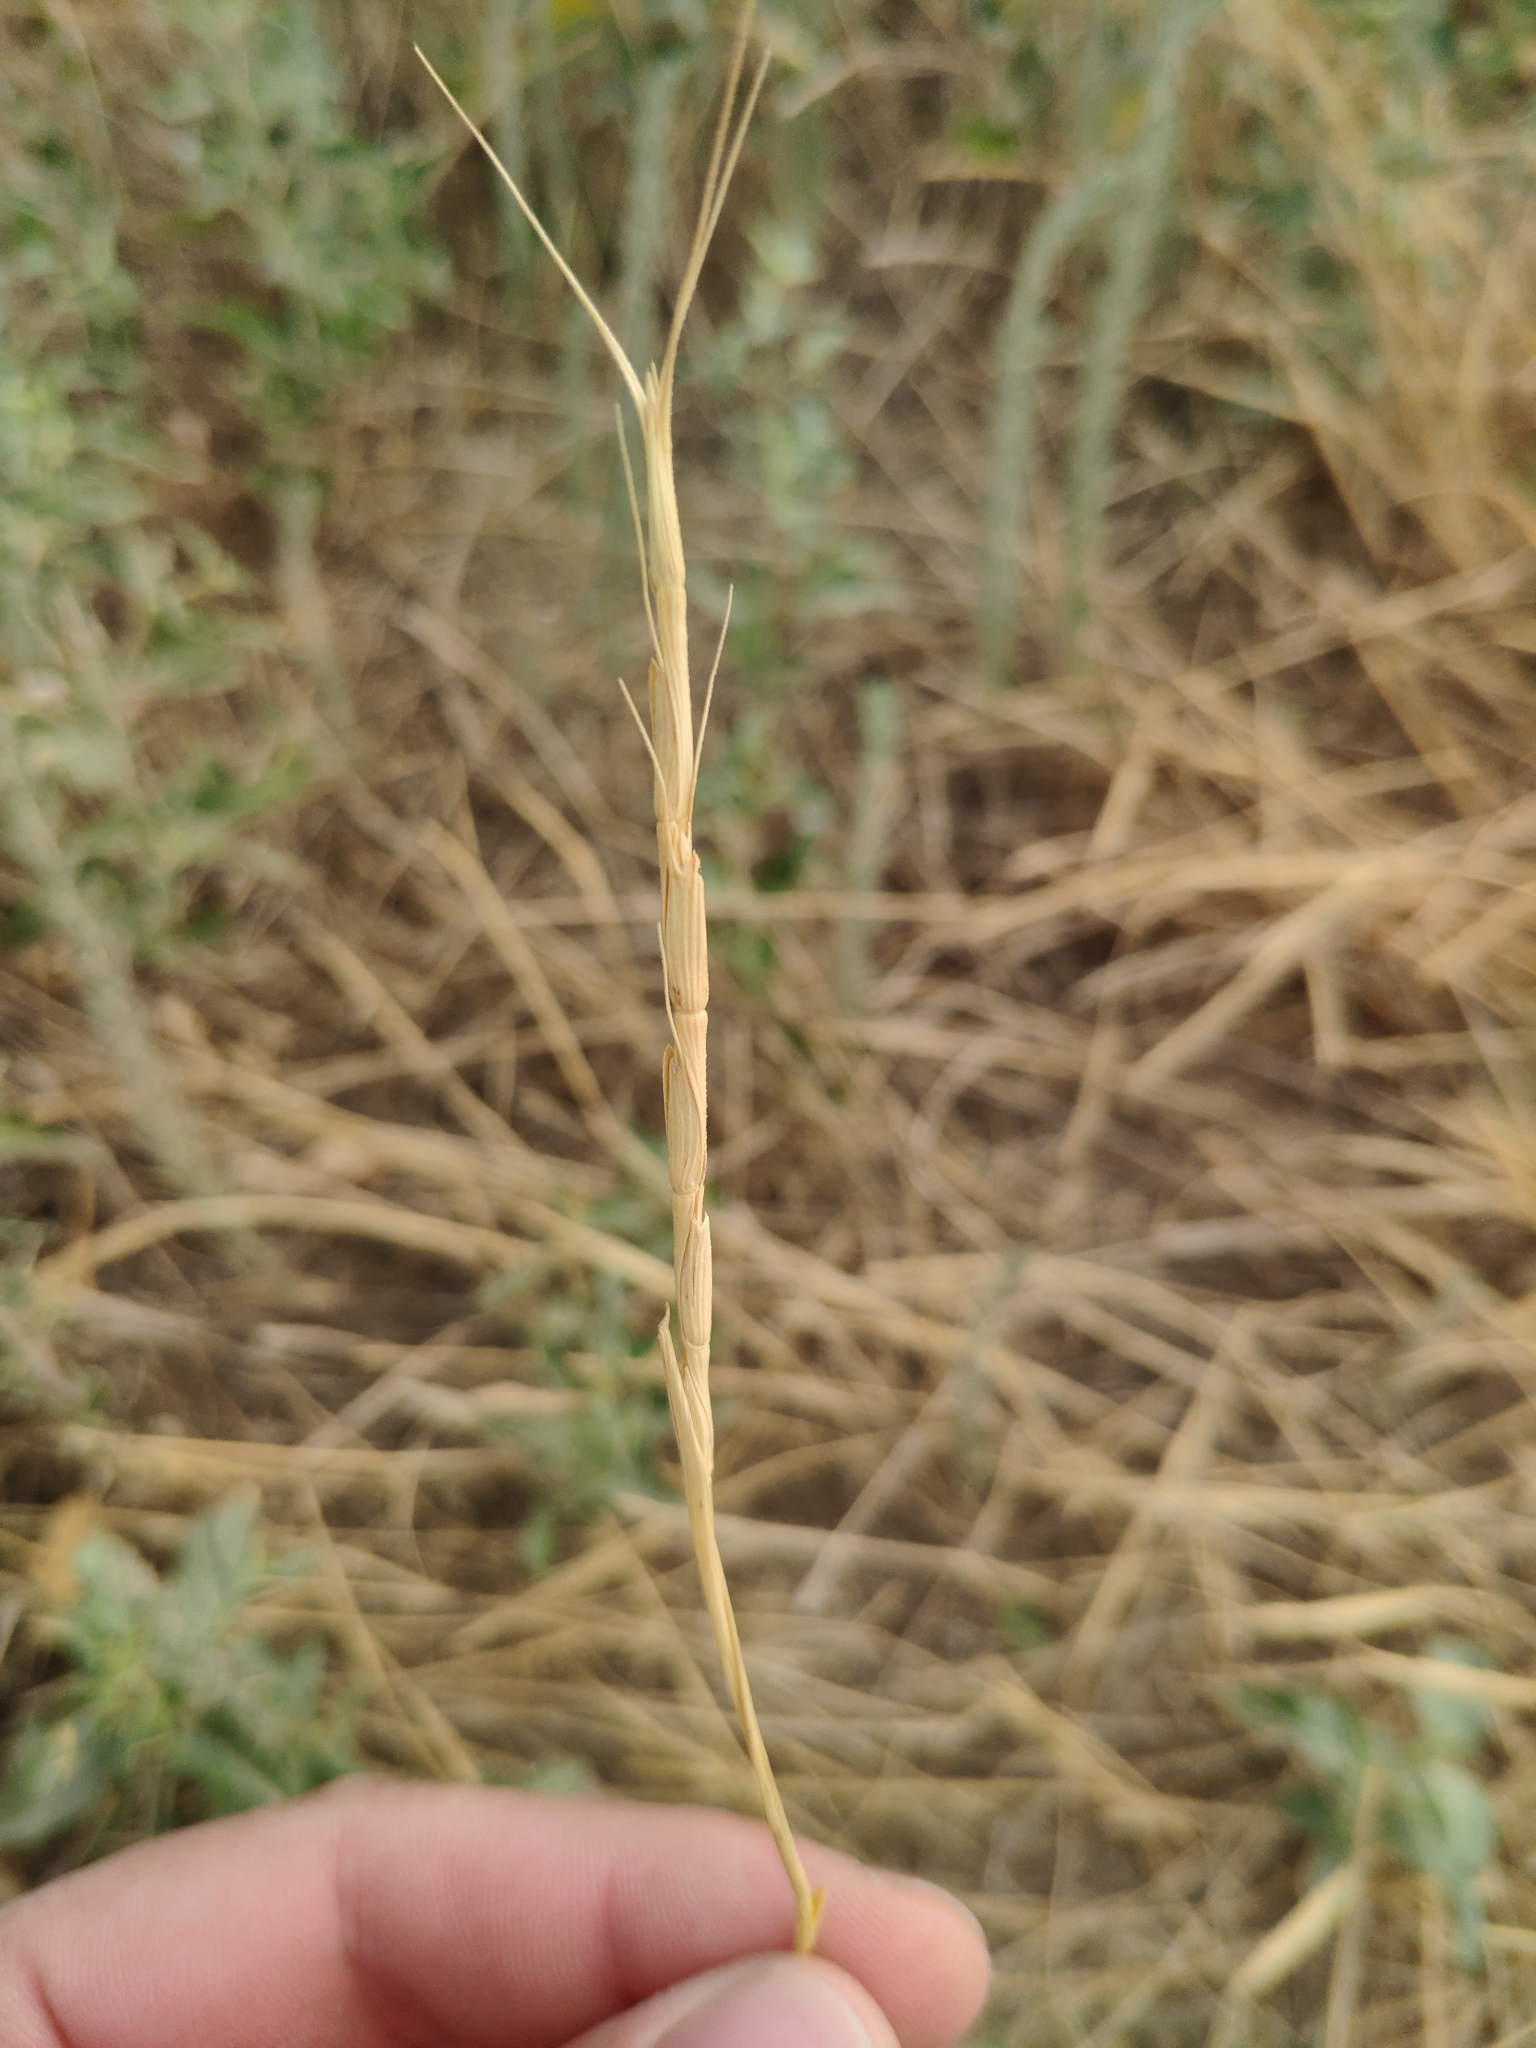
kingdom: Plantae
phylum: Tracheophyta
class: Liliopsida
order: Poales
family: Poaceae
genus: Aegilops
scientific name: Aegilops cylindrica
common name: Jointed goatgrass
